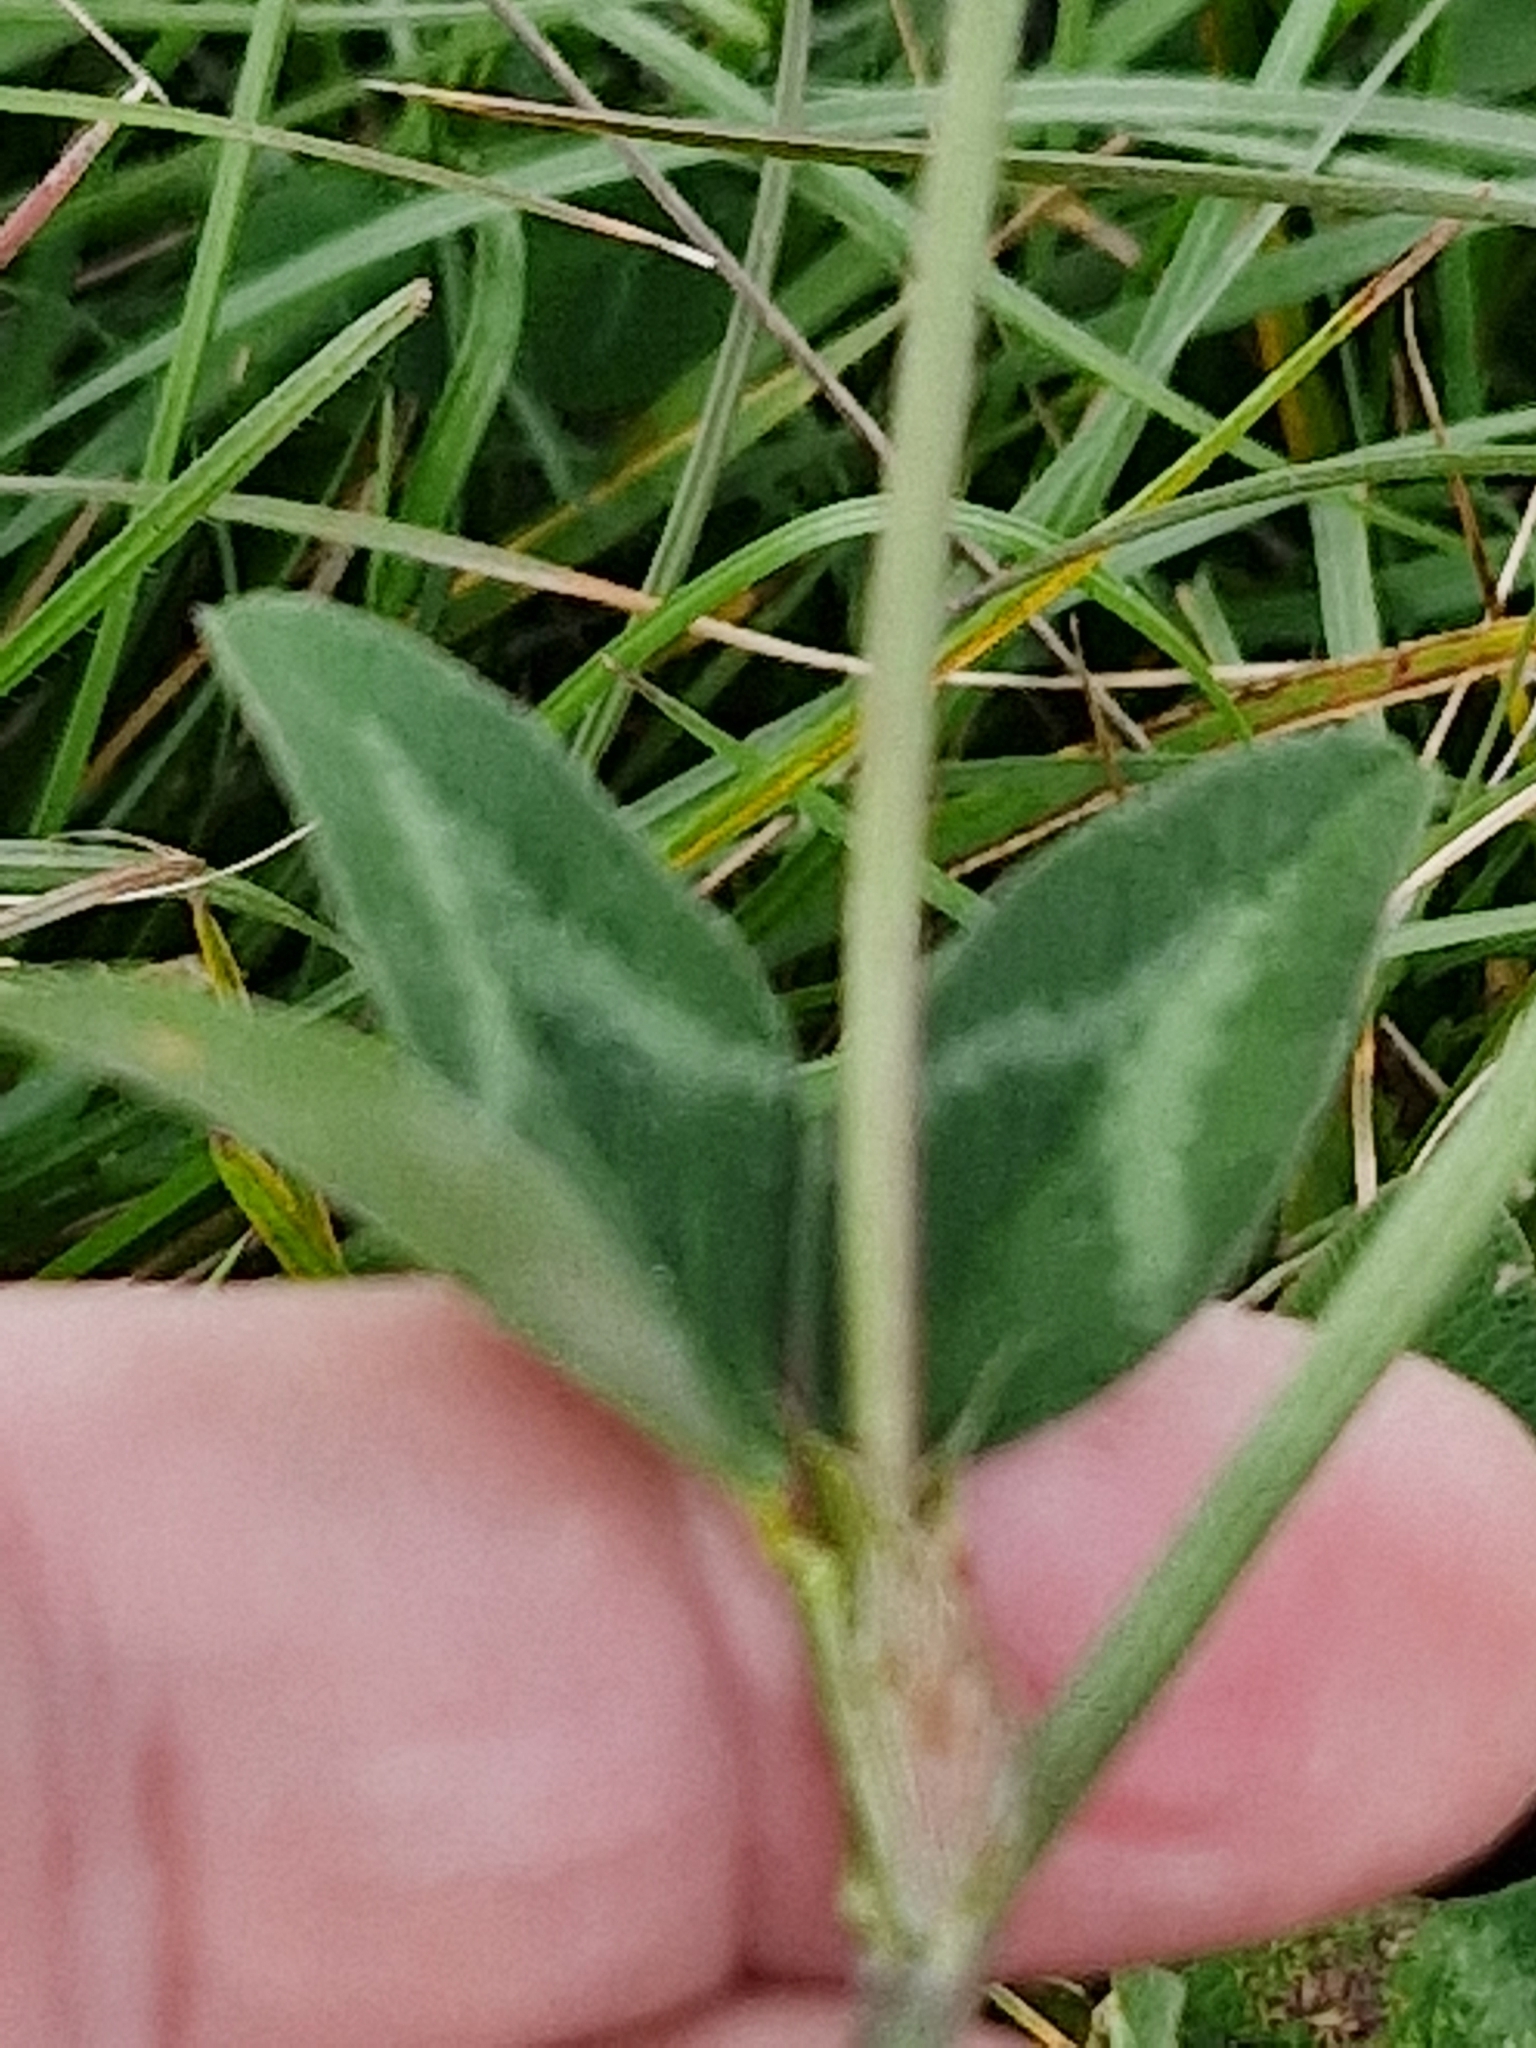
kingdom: Plantae
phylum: Tracheophyta
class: Magnoliopsida
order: Fabales
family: Fabaceae
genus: Trifolium
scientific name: Trifolium pratense
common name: Red clover
